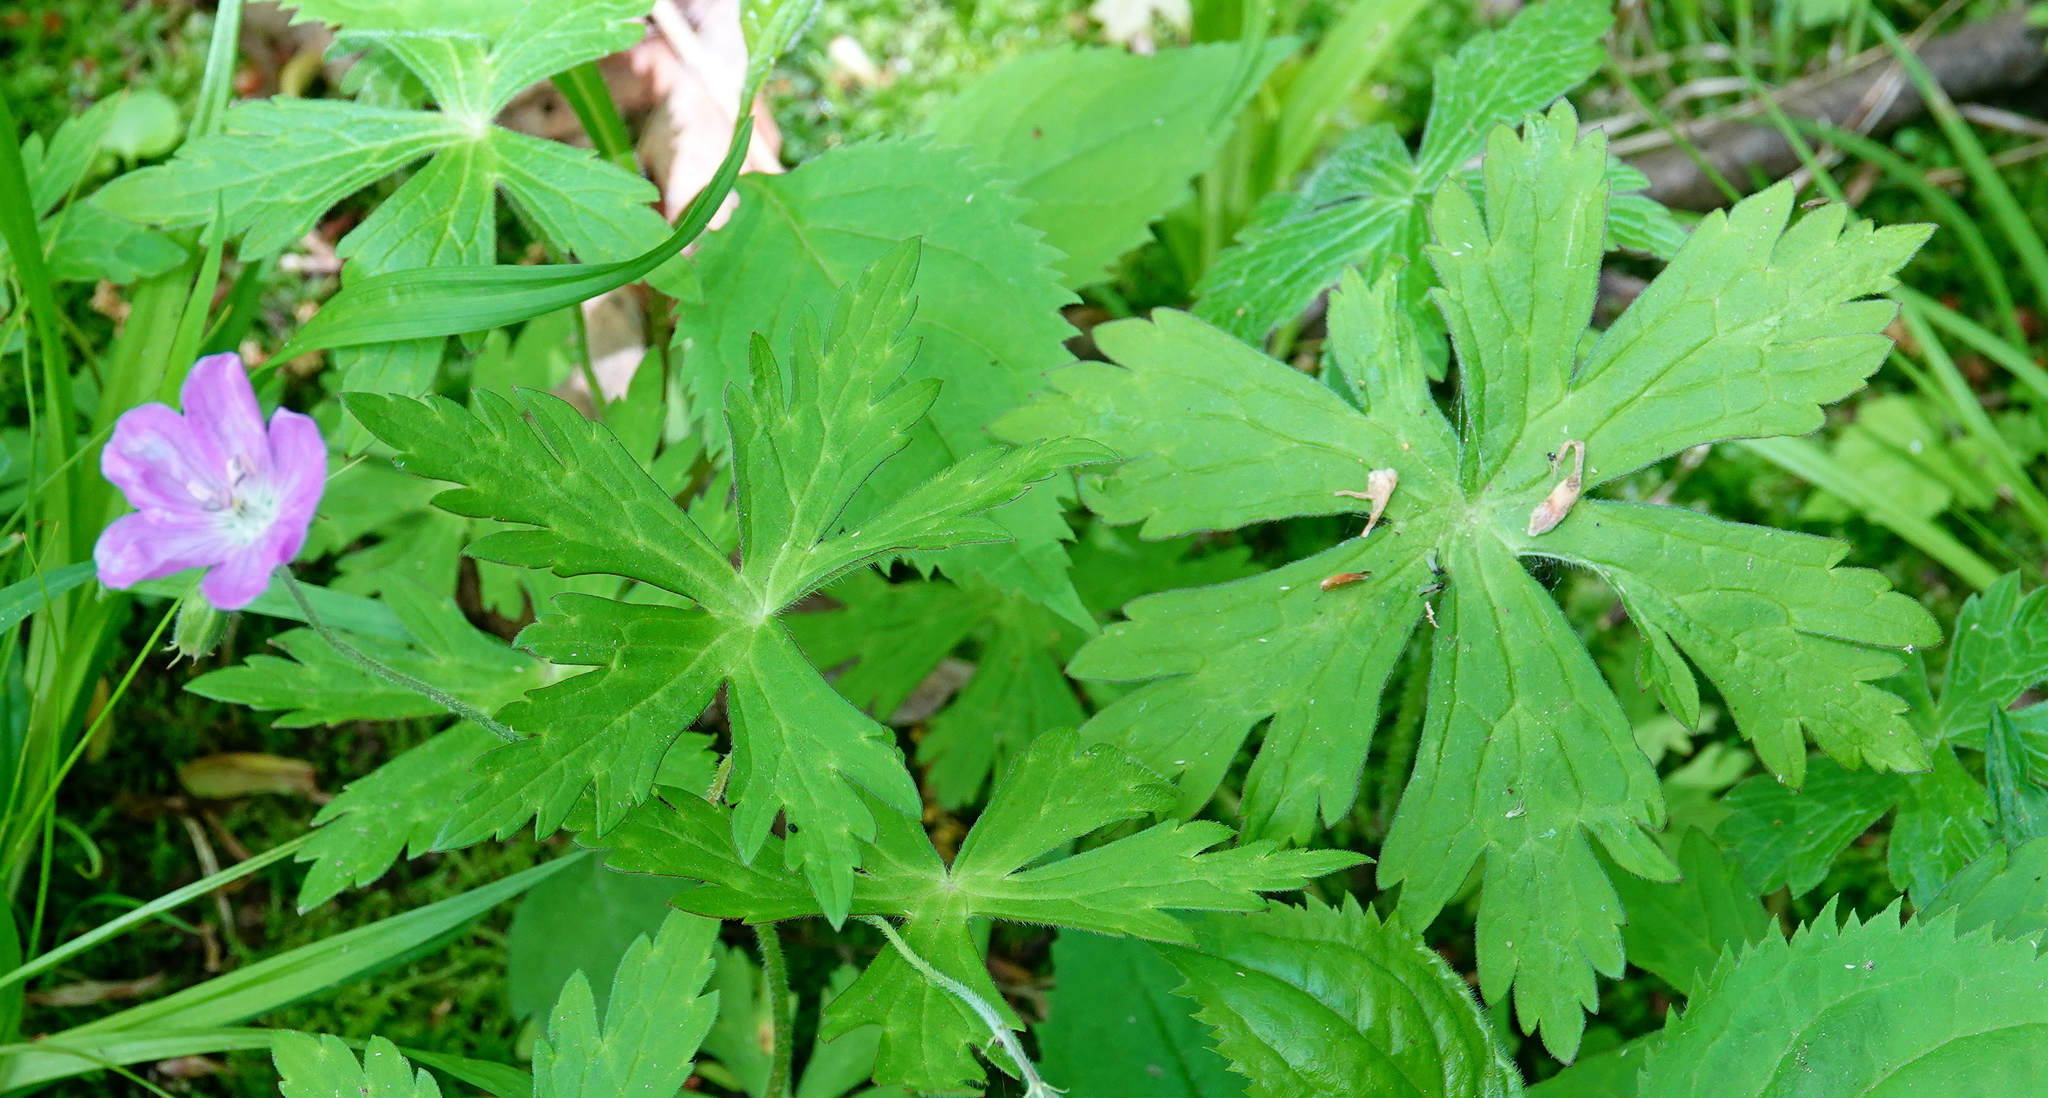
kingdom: Plantae
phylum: Tracheophyta
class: Magnoliopsida
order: Geraniales
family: Geraniaceae
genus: Geranium
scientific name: Geranium maculatum
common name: Spotted geranium
